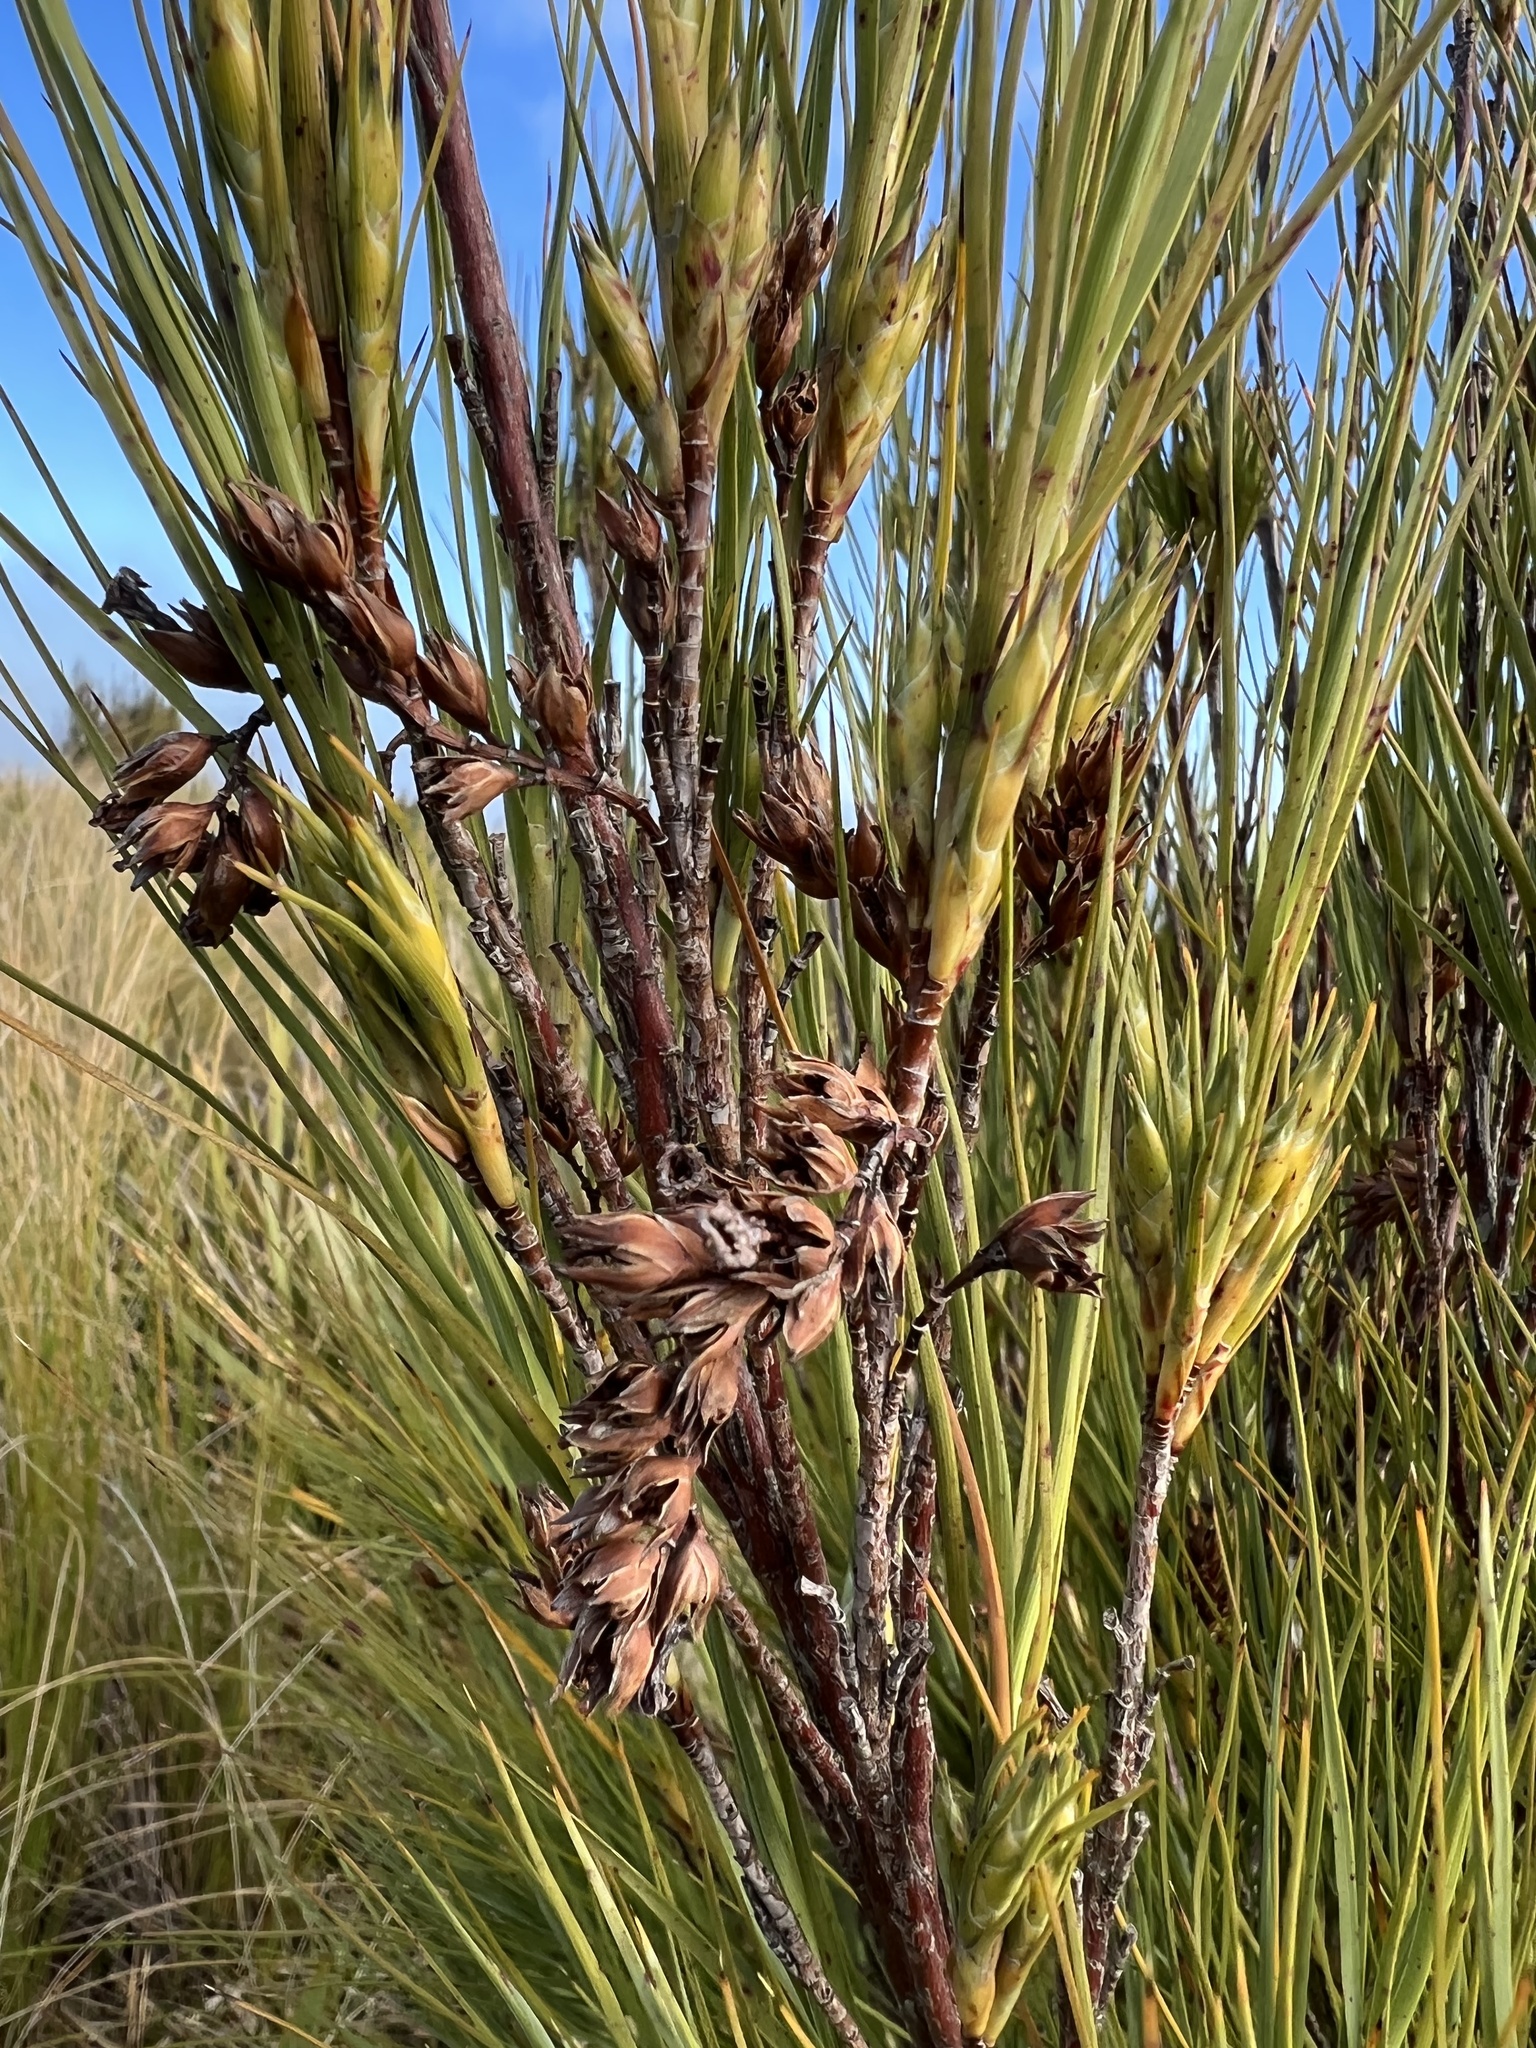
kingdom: Plantae
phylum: Tracheophyta
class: Magnoliopsida
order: Ericales
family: Ericaceae
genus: Dracophyllum
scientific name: Dracophyllum longifolium
